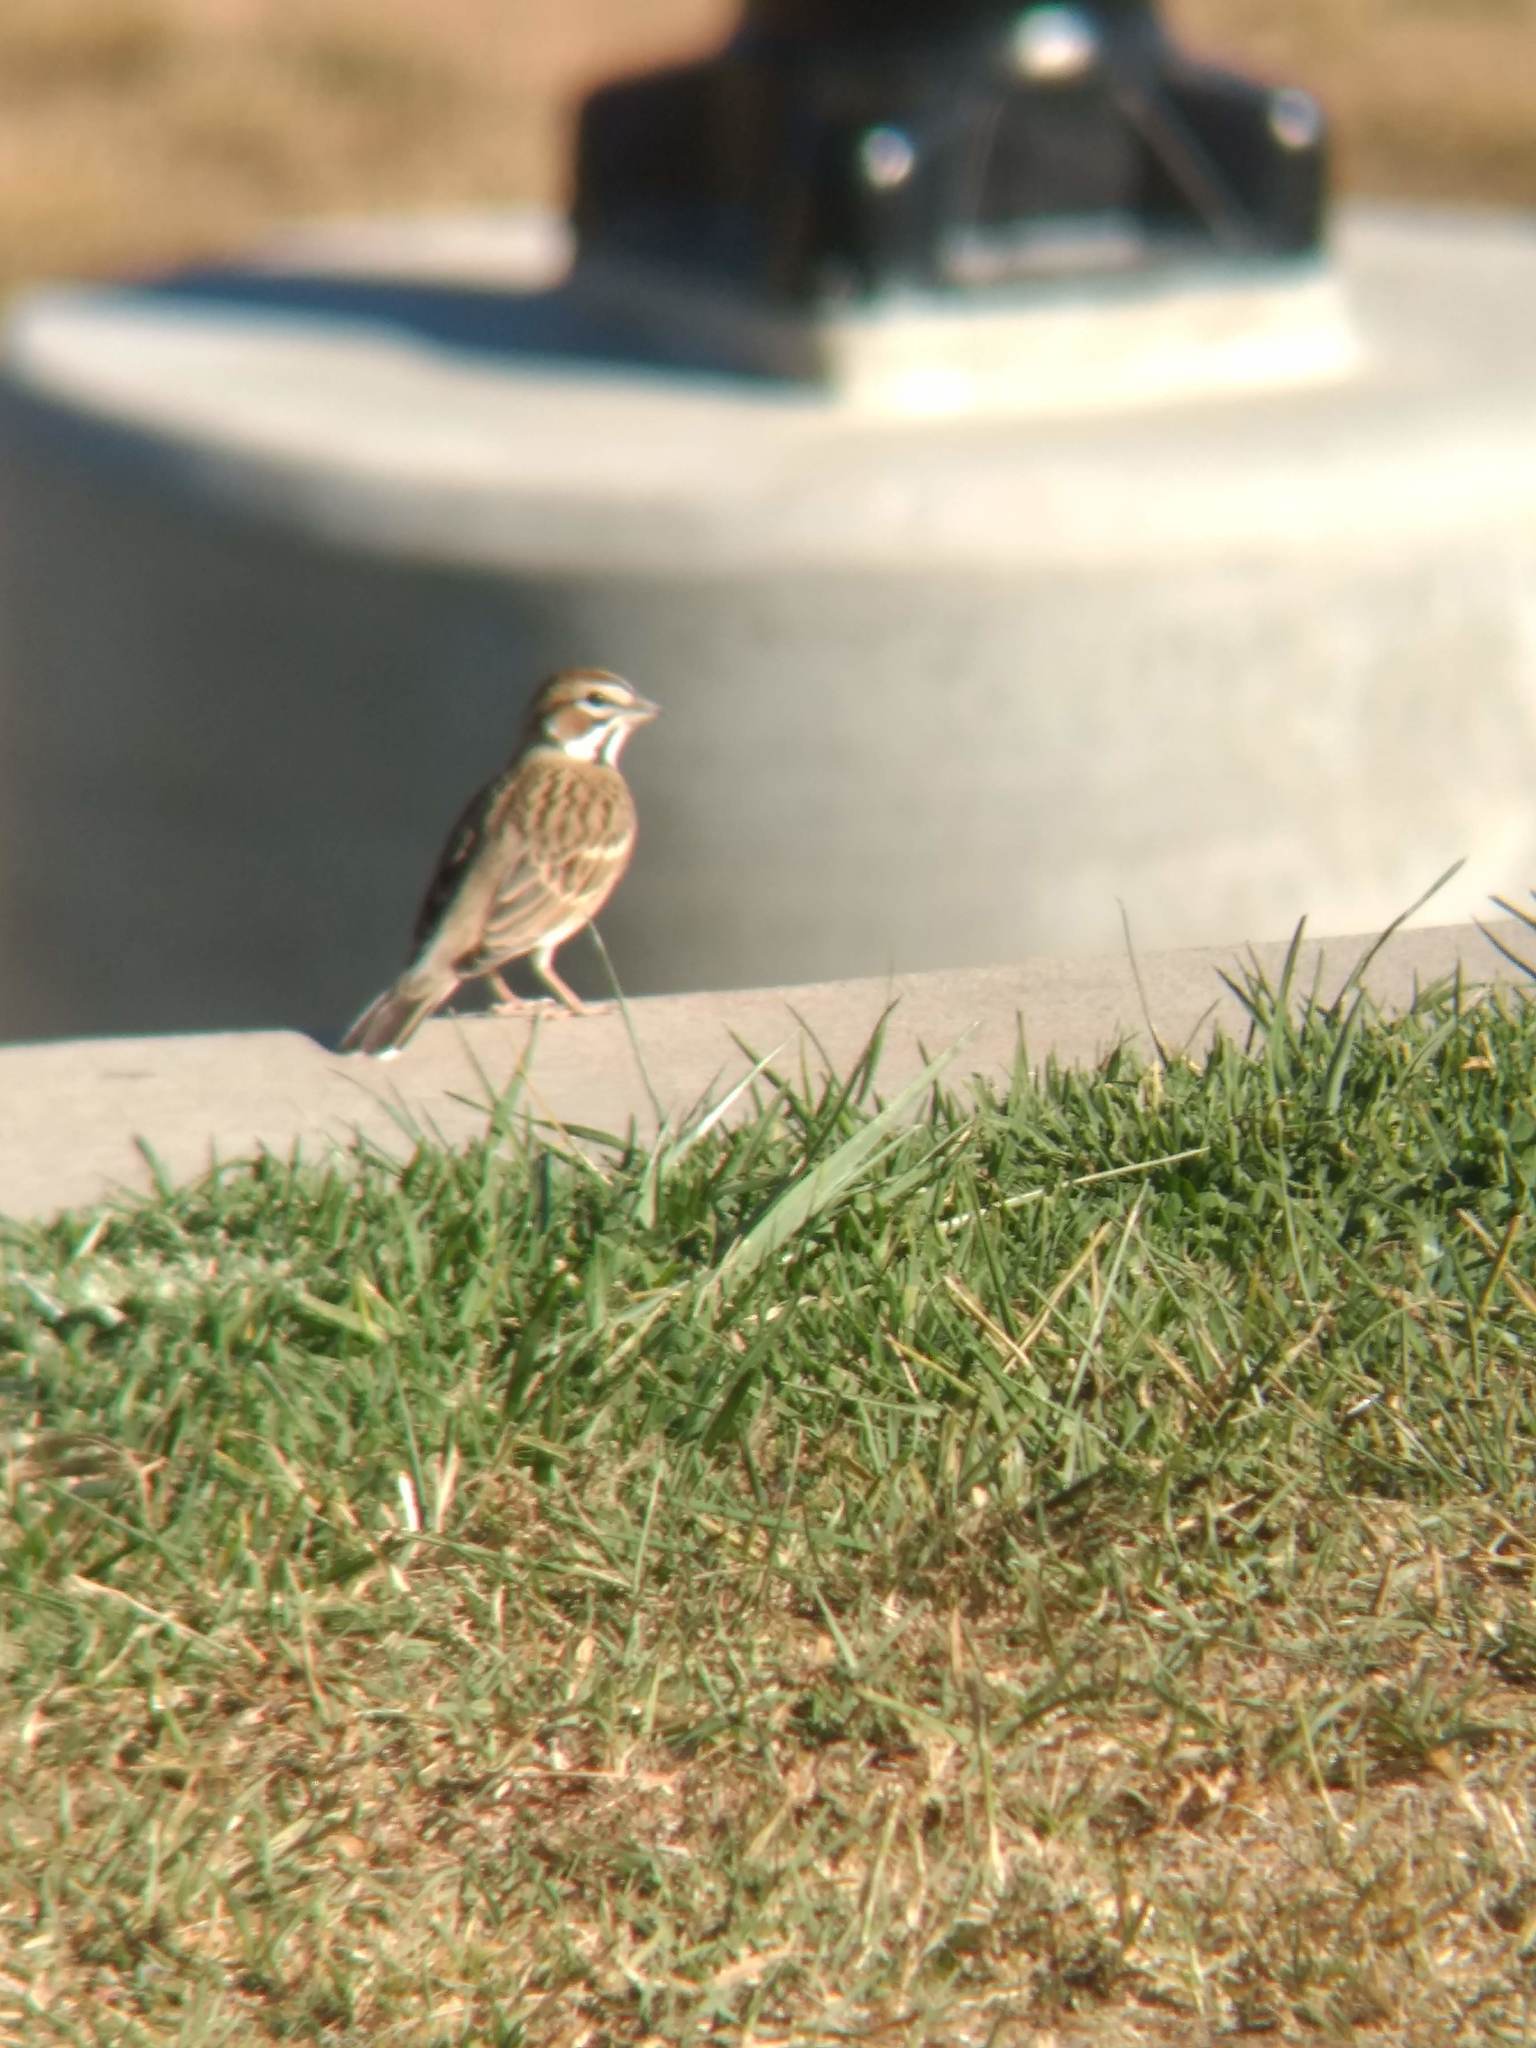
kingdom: Animalia
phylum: Chordata
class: Aves
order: Passeriformes
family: Passerellidae
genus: Chondestes
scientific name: Chondestes grammacus
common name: Lark sparrow
